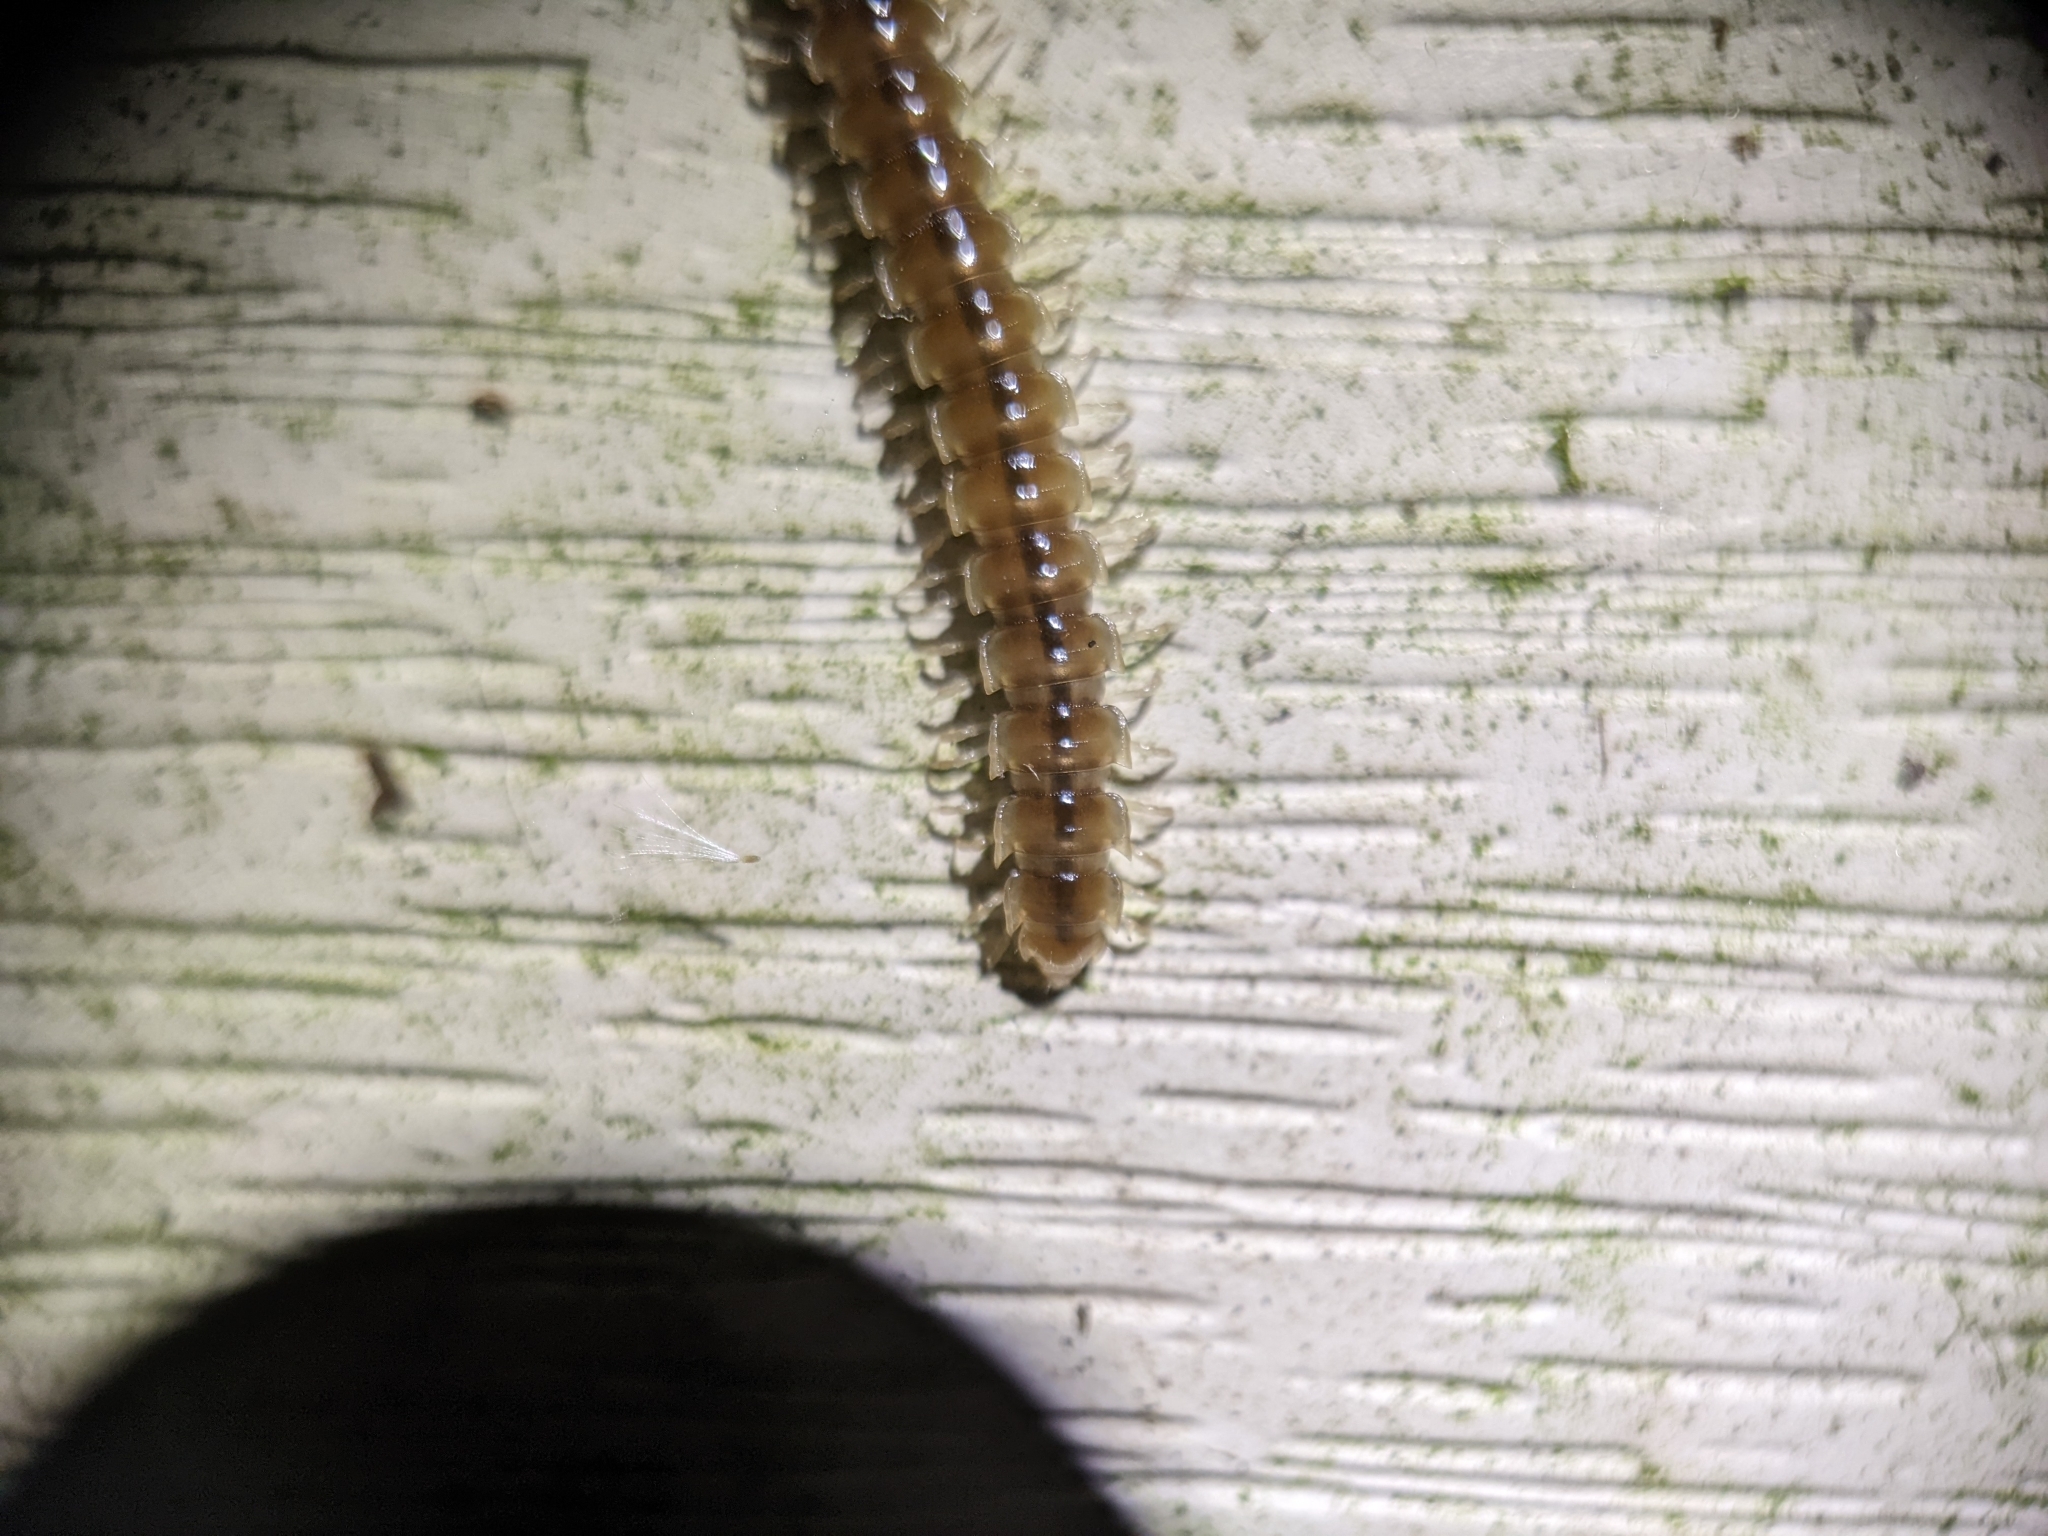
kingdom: Animalia
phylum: Arthropoda
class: Diplopoda
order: Polydesmida
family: Paradoxosomatidae
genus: Oxidus
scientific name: Oxidus gracilis
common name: Greenhouse millipede
